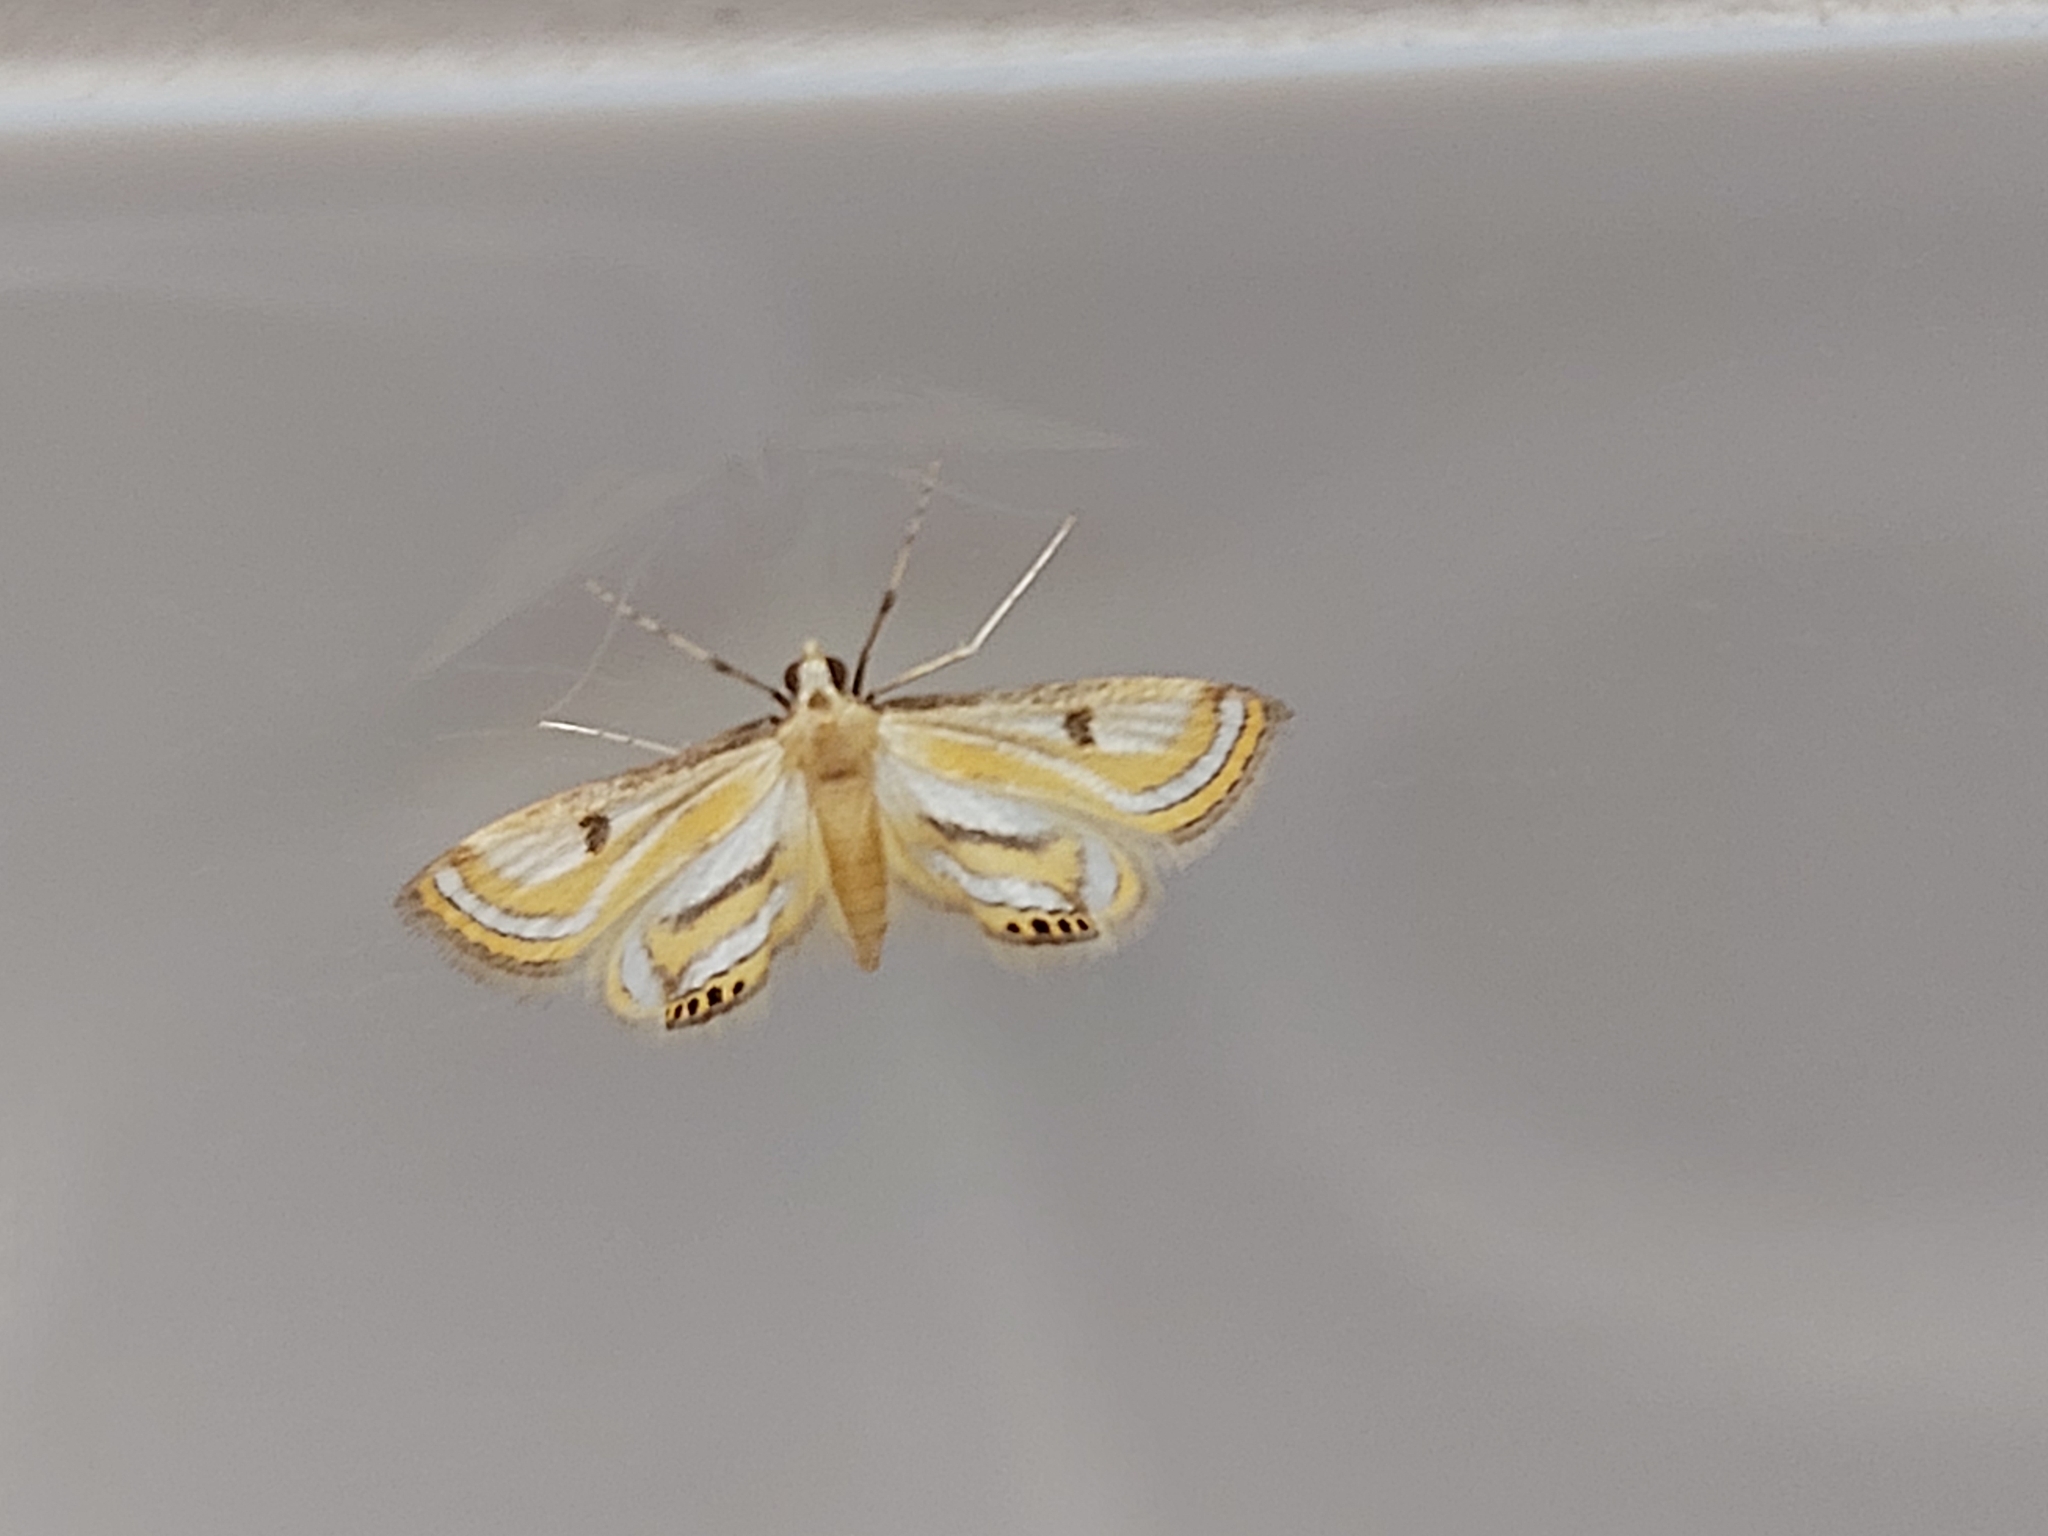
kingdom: Animalia
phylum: Arthropoda
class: Insecta
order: Lepidoptera
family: Crambidae
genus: Tetrernia
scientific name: Tetrernia teminitis
